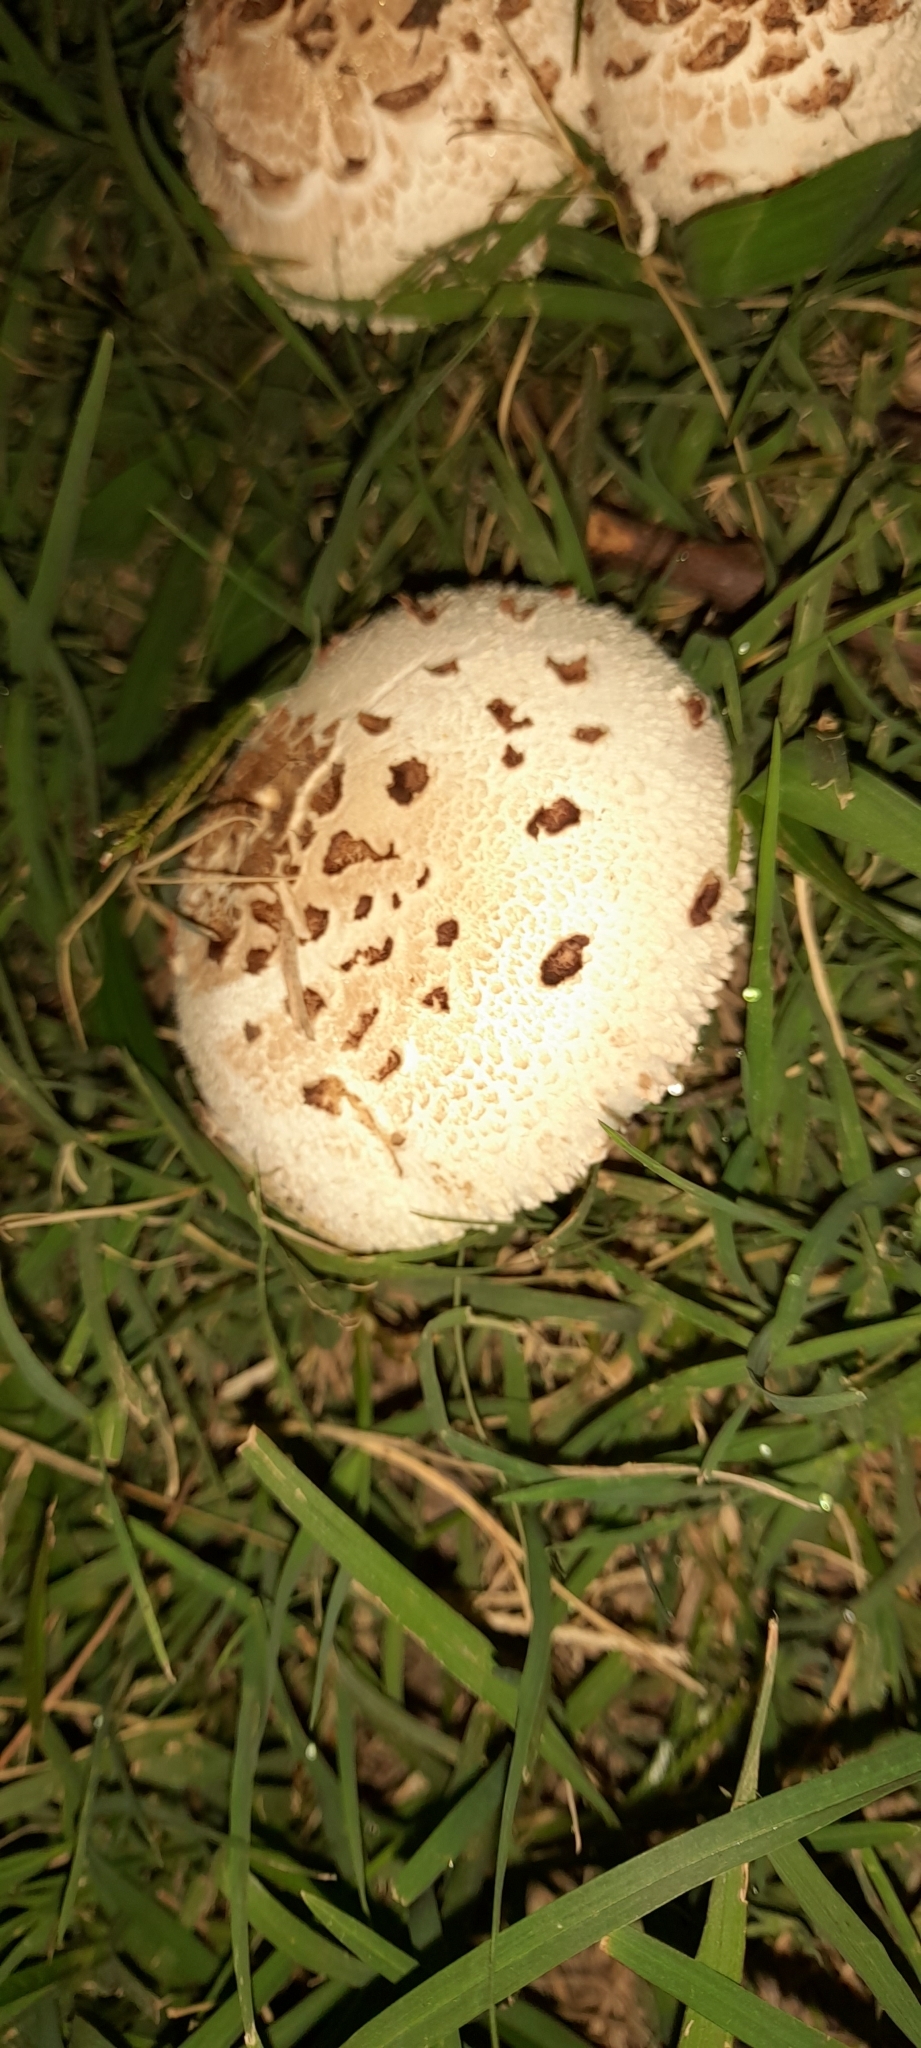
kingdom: Fungi
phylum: Basidiomycota
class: Agaricomycetes
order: Agaricales
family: Agaricaceae
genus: Chlorophyllum
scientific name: Chlorophyllum molybdites
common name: False parasol
